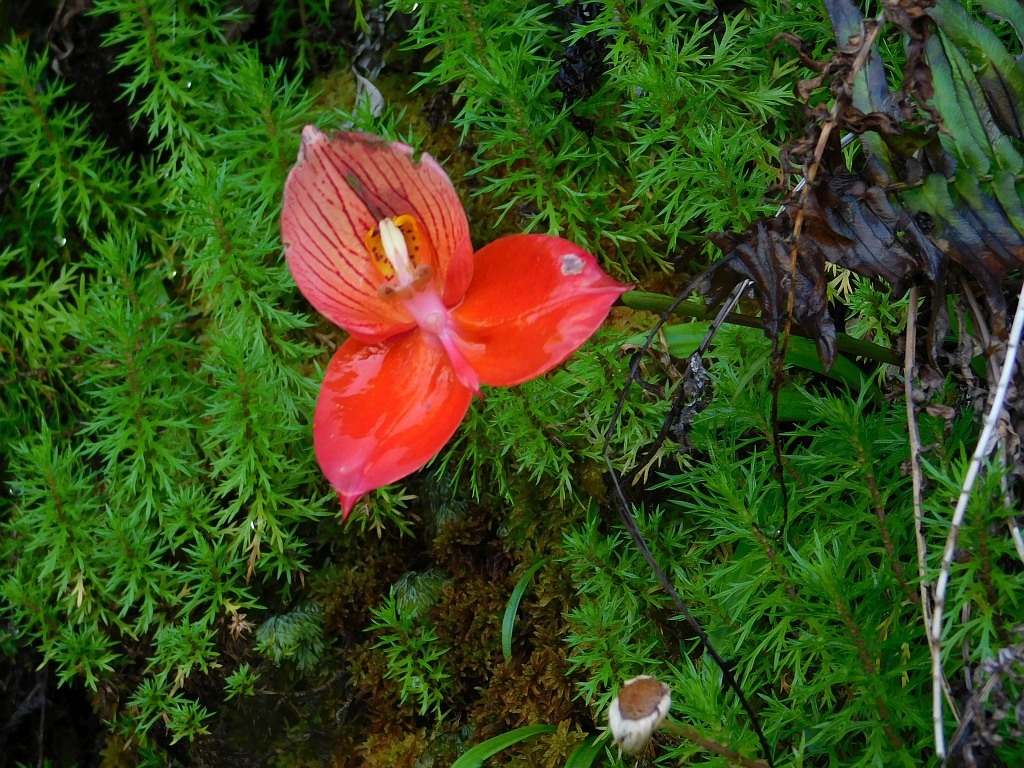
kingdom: Plantae
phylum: Tracheophyta
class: Liliopsida
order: Asparagales
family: Orchidaceae
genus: Disa
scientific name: Disa uniflora
